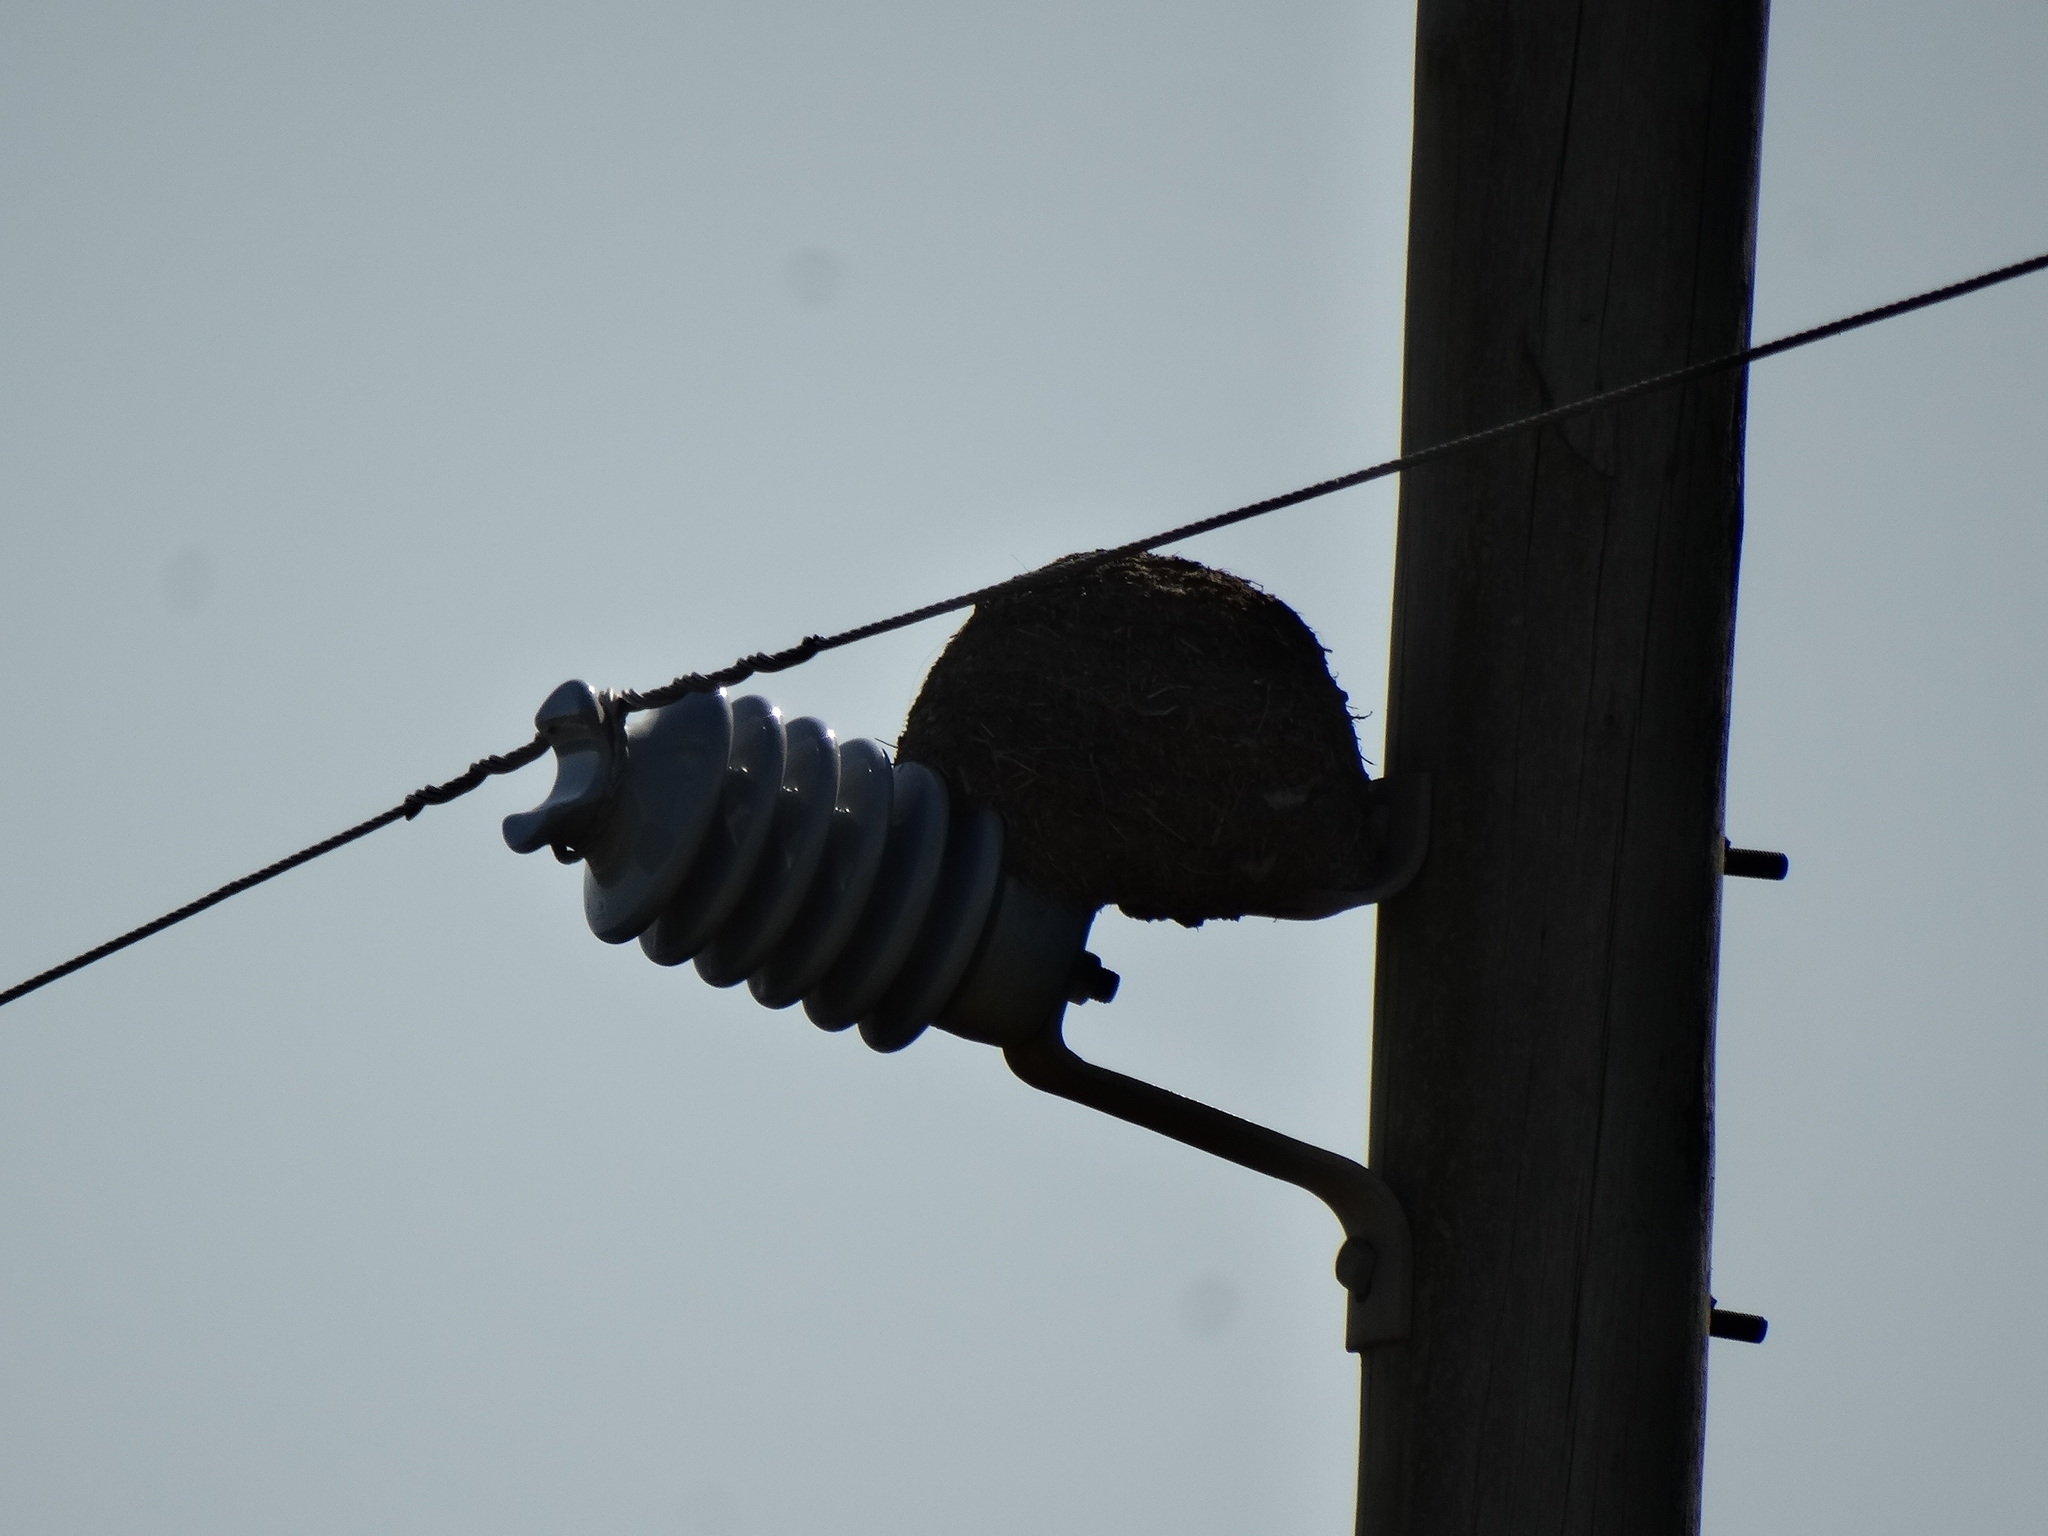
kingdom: Animalia
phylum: Chordata
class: Aves
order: Passeriformes
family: Furnariidae
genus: Furnarius
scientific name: Furnarius rufus
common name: Rufous hornero
